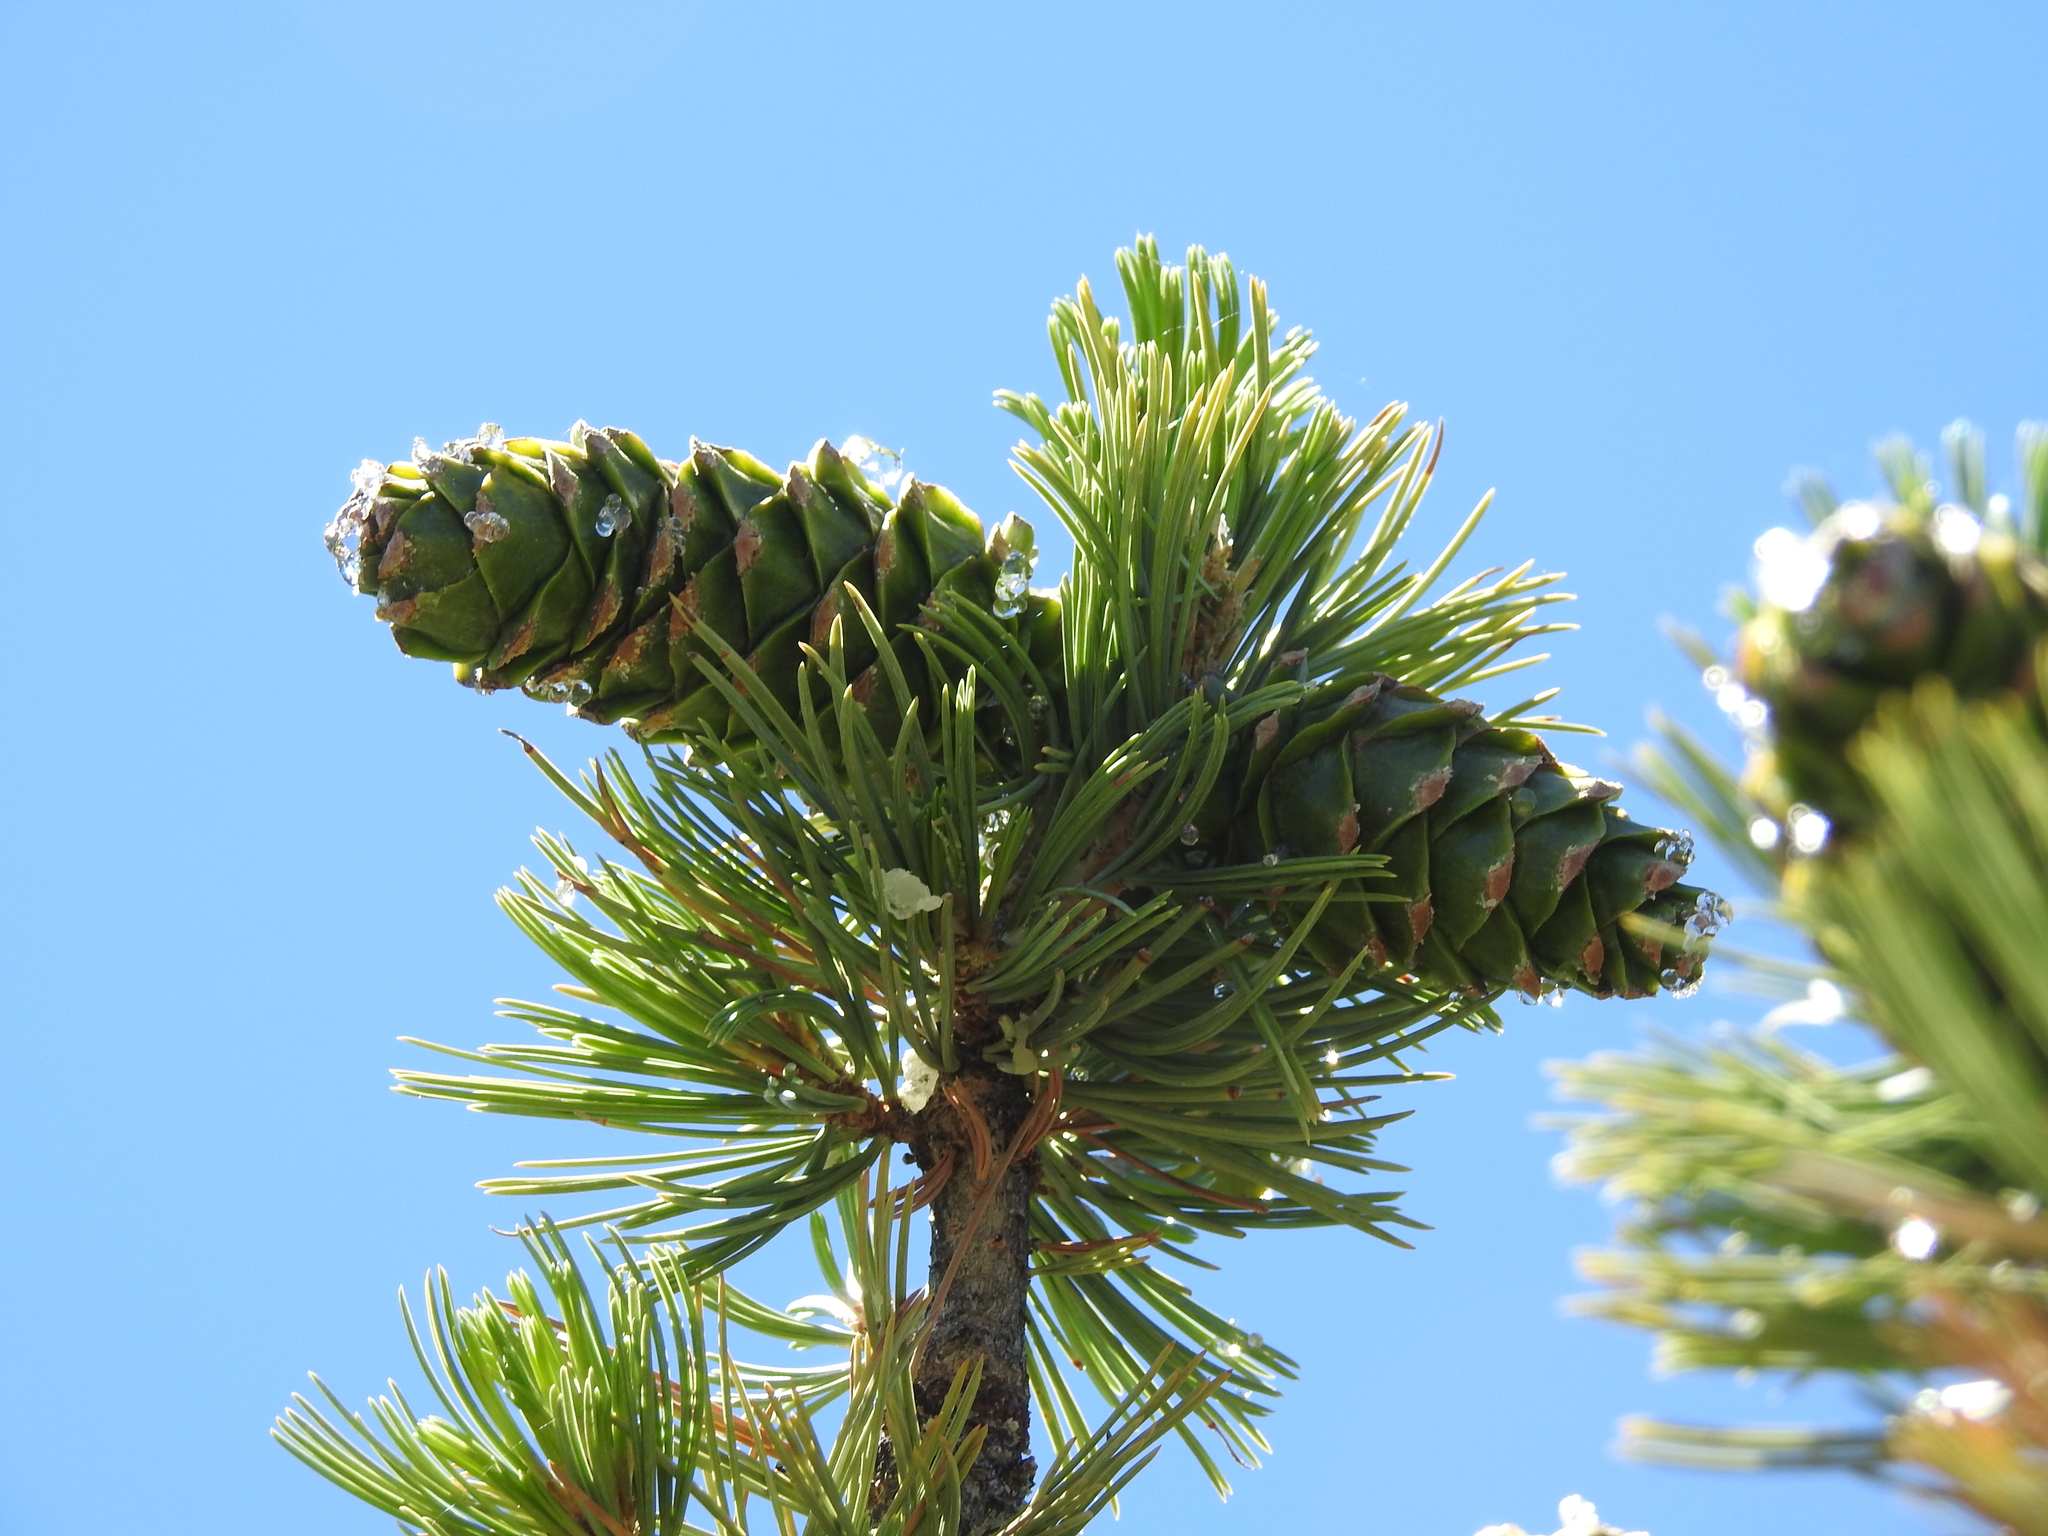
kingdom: Plantae
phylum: Tracheophyta
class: Pinopsida
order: Pinales
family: Pinaceae
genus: Pinus
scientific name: Pinus flexilis
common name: Limber pine
